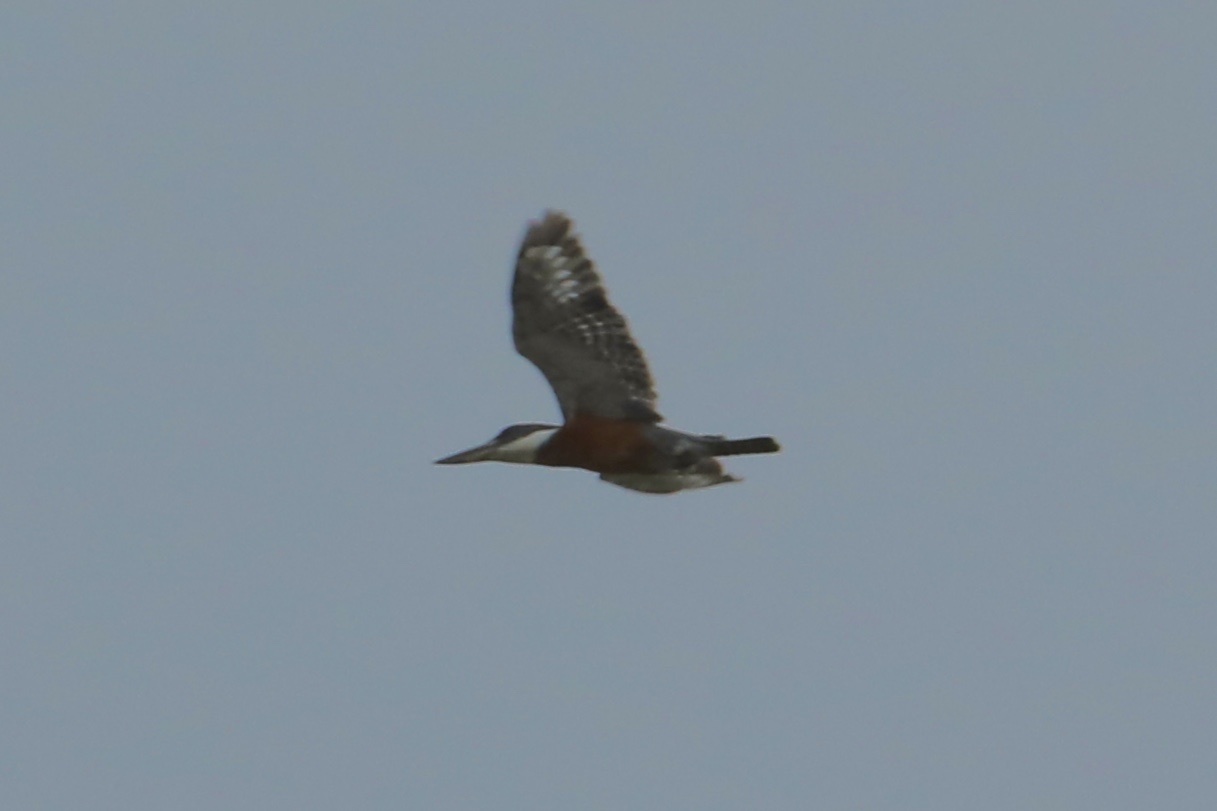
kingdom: Animalia
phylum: Chordata
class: Aves
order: Coraciiformes
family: Alcedinidae
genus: Megaceryle
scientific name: Megaceryle torquata
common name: Ringed kingfisher
